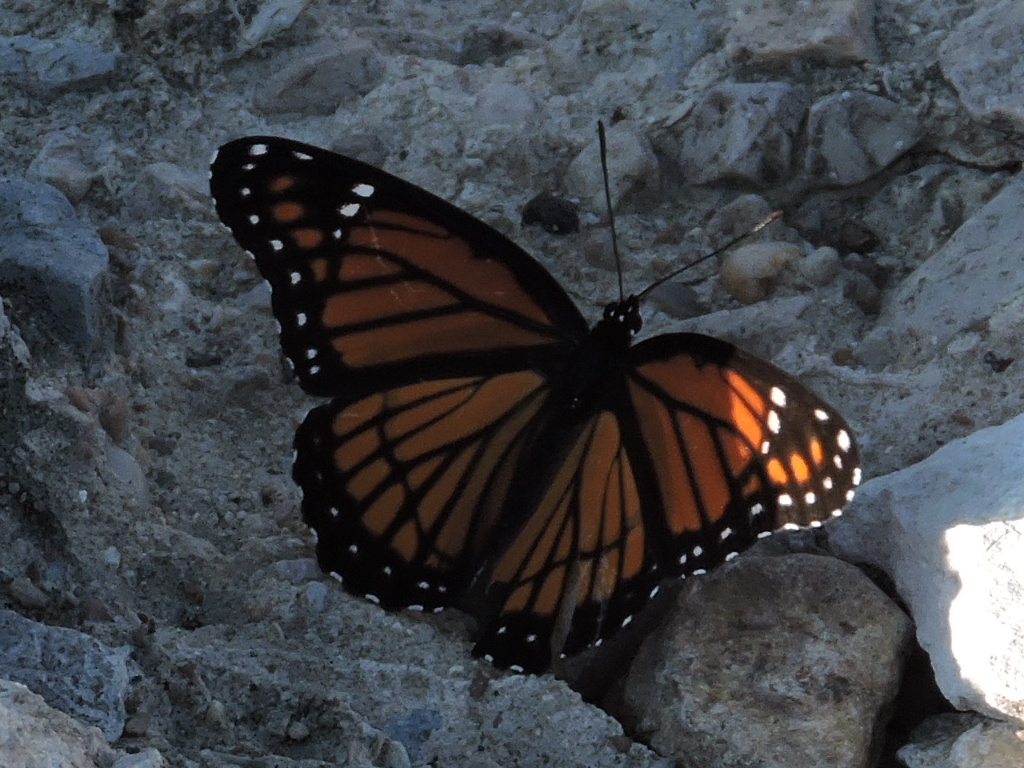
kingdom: Animalia
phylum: Arthropoda
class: Insecta
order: Lepidoptera
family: Nymphalidae
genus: Limenitis
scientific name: Limenitis archippus
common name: Viceroy
